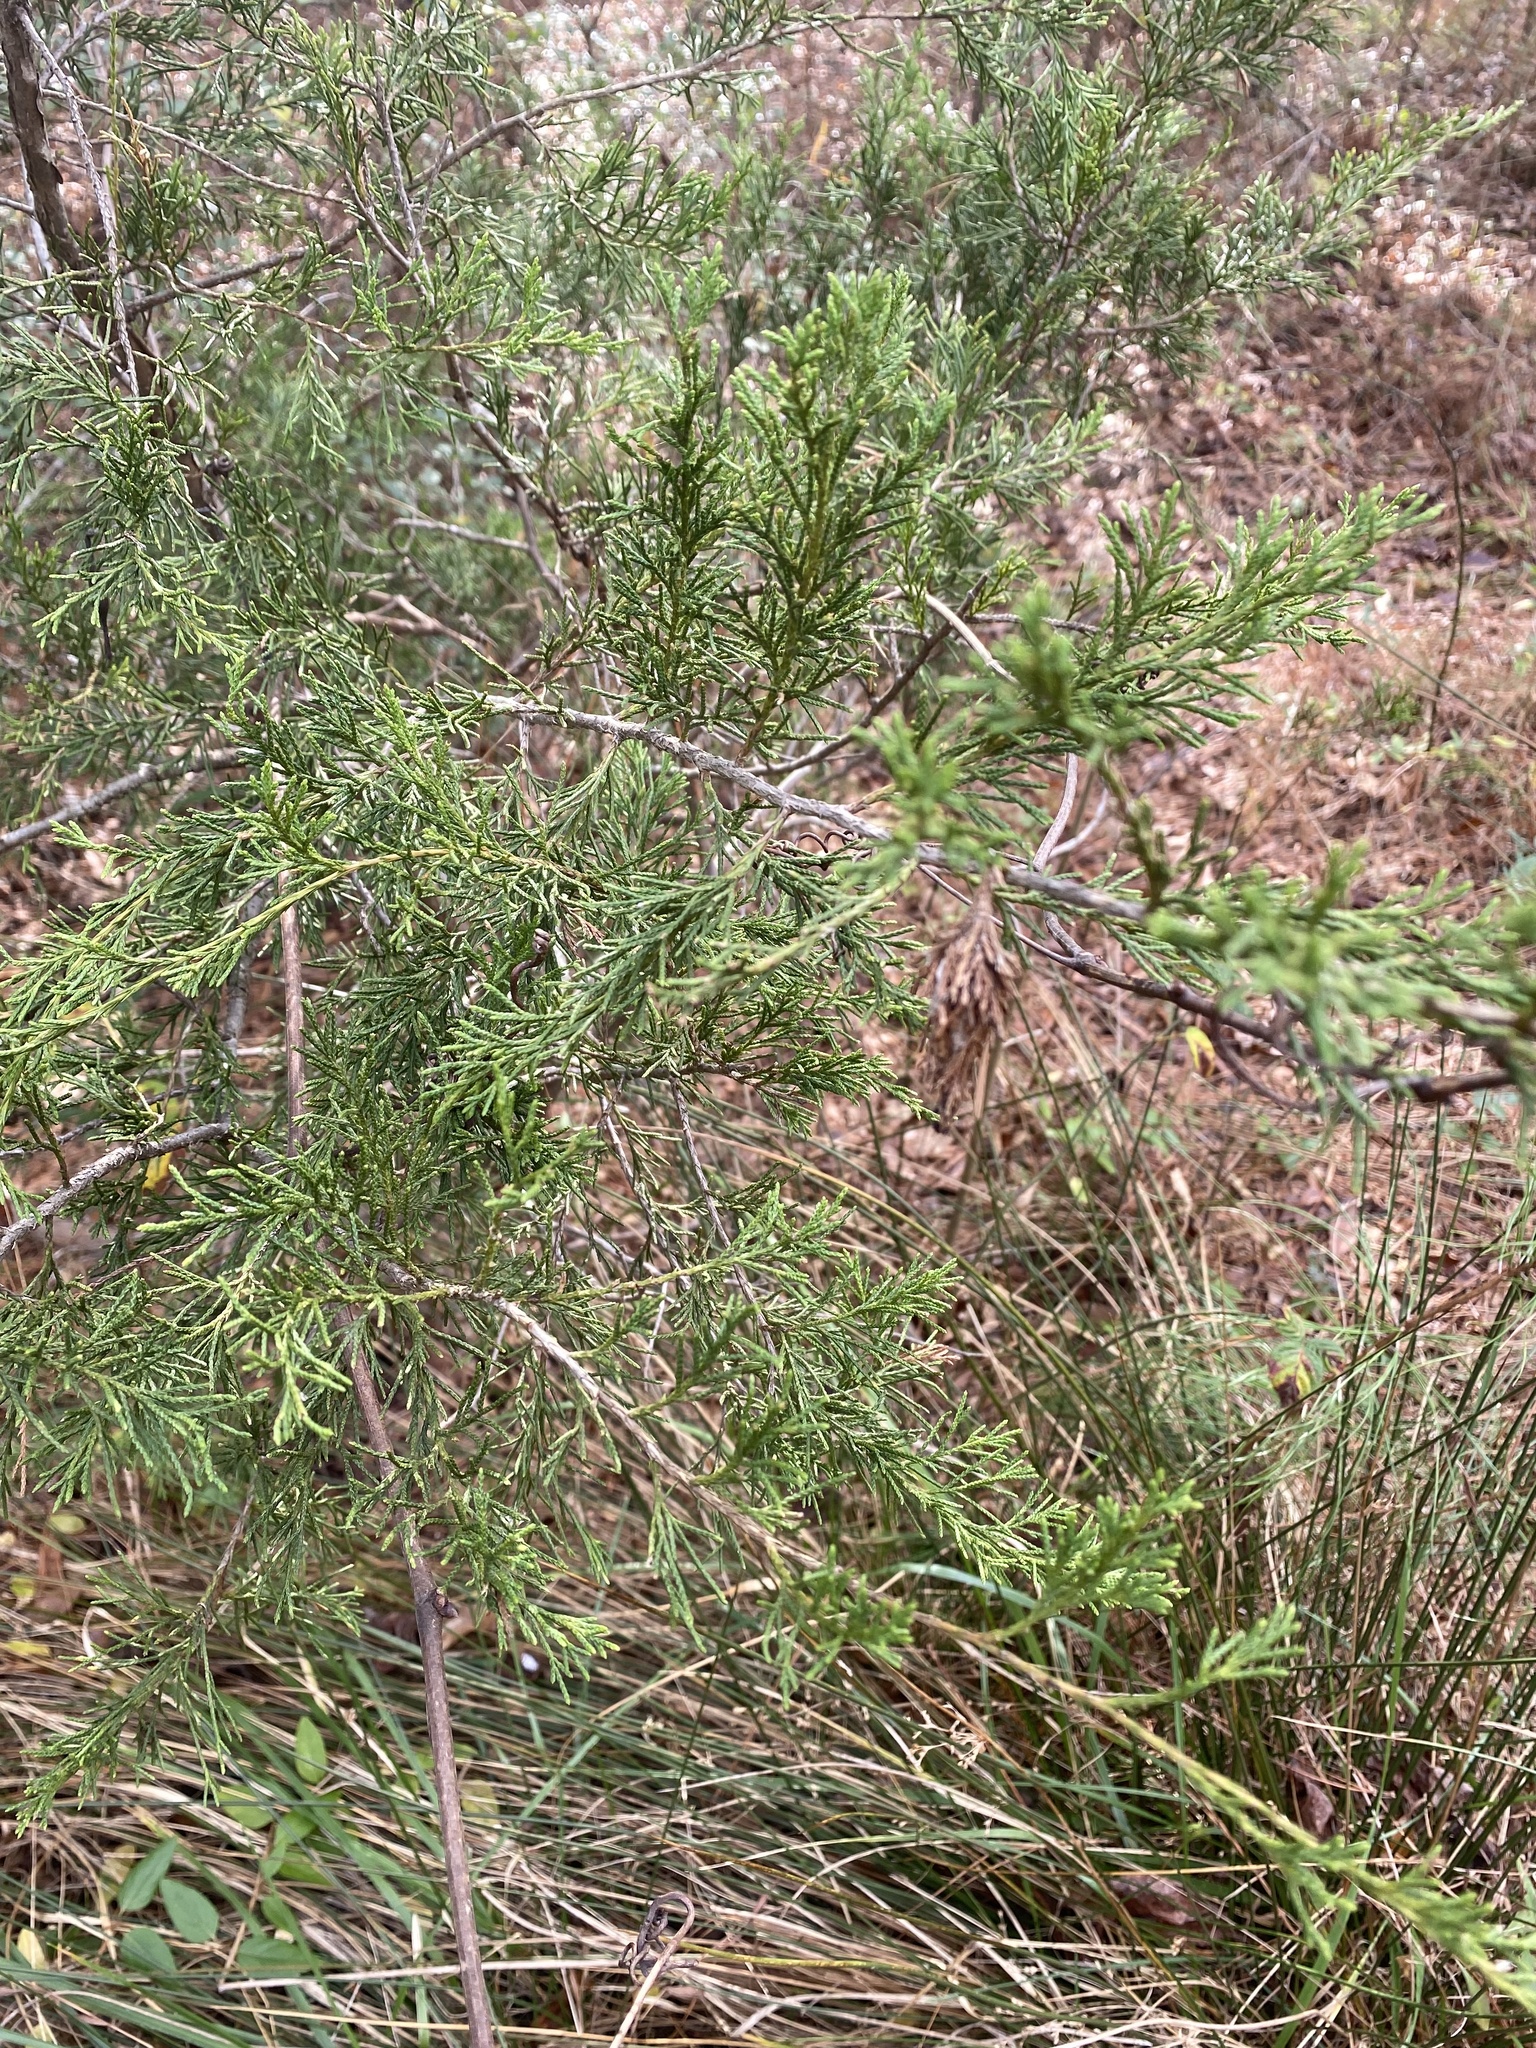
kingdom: Animalia
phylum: Arthropoda
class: Insecta
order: Lepidoptera
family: Psychidae
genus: Thyridopteryx
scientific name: Thyridopteryx ephemeraeformis
